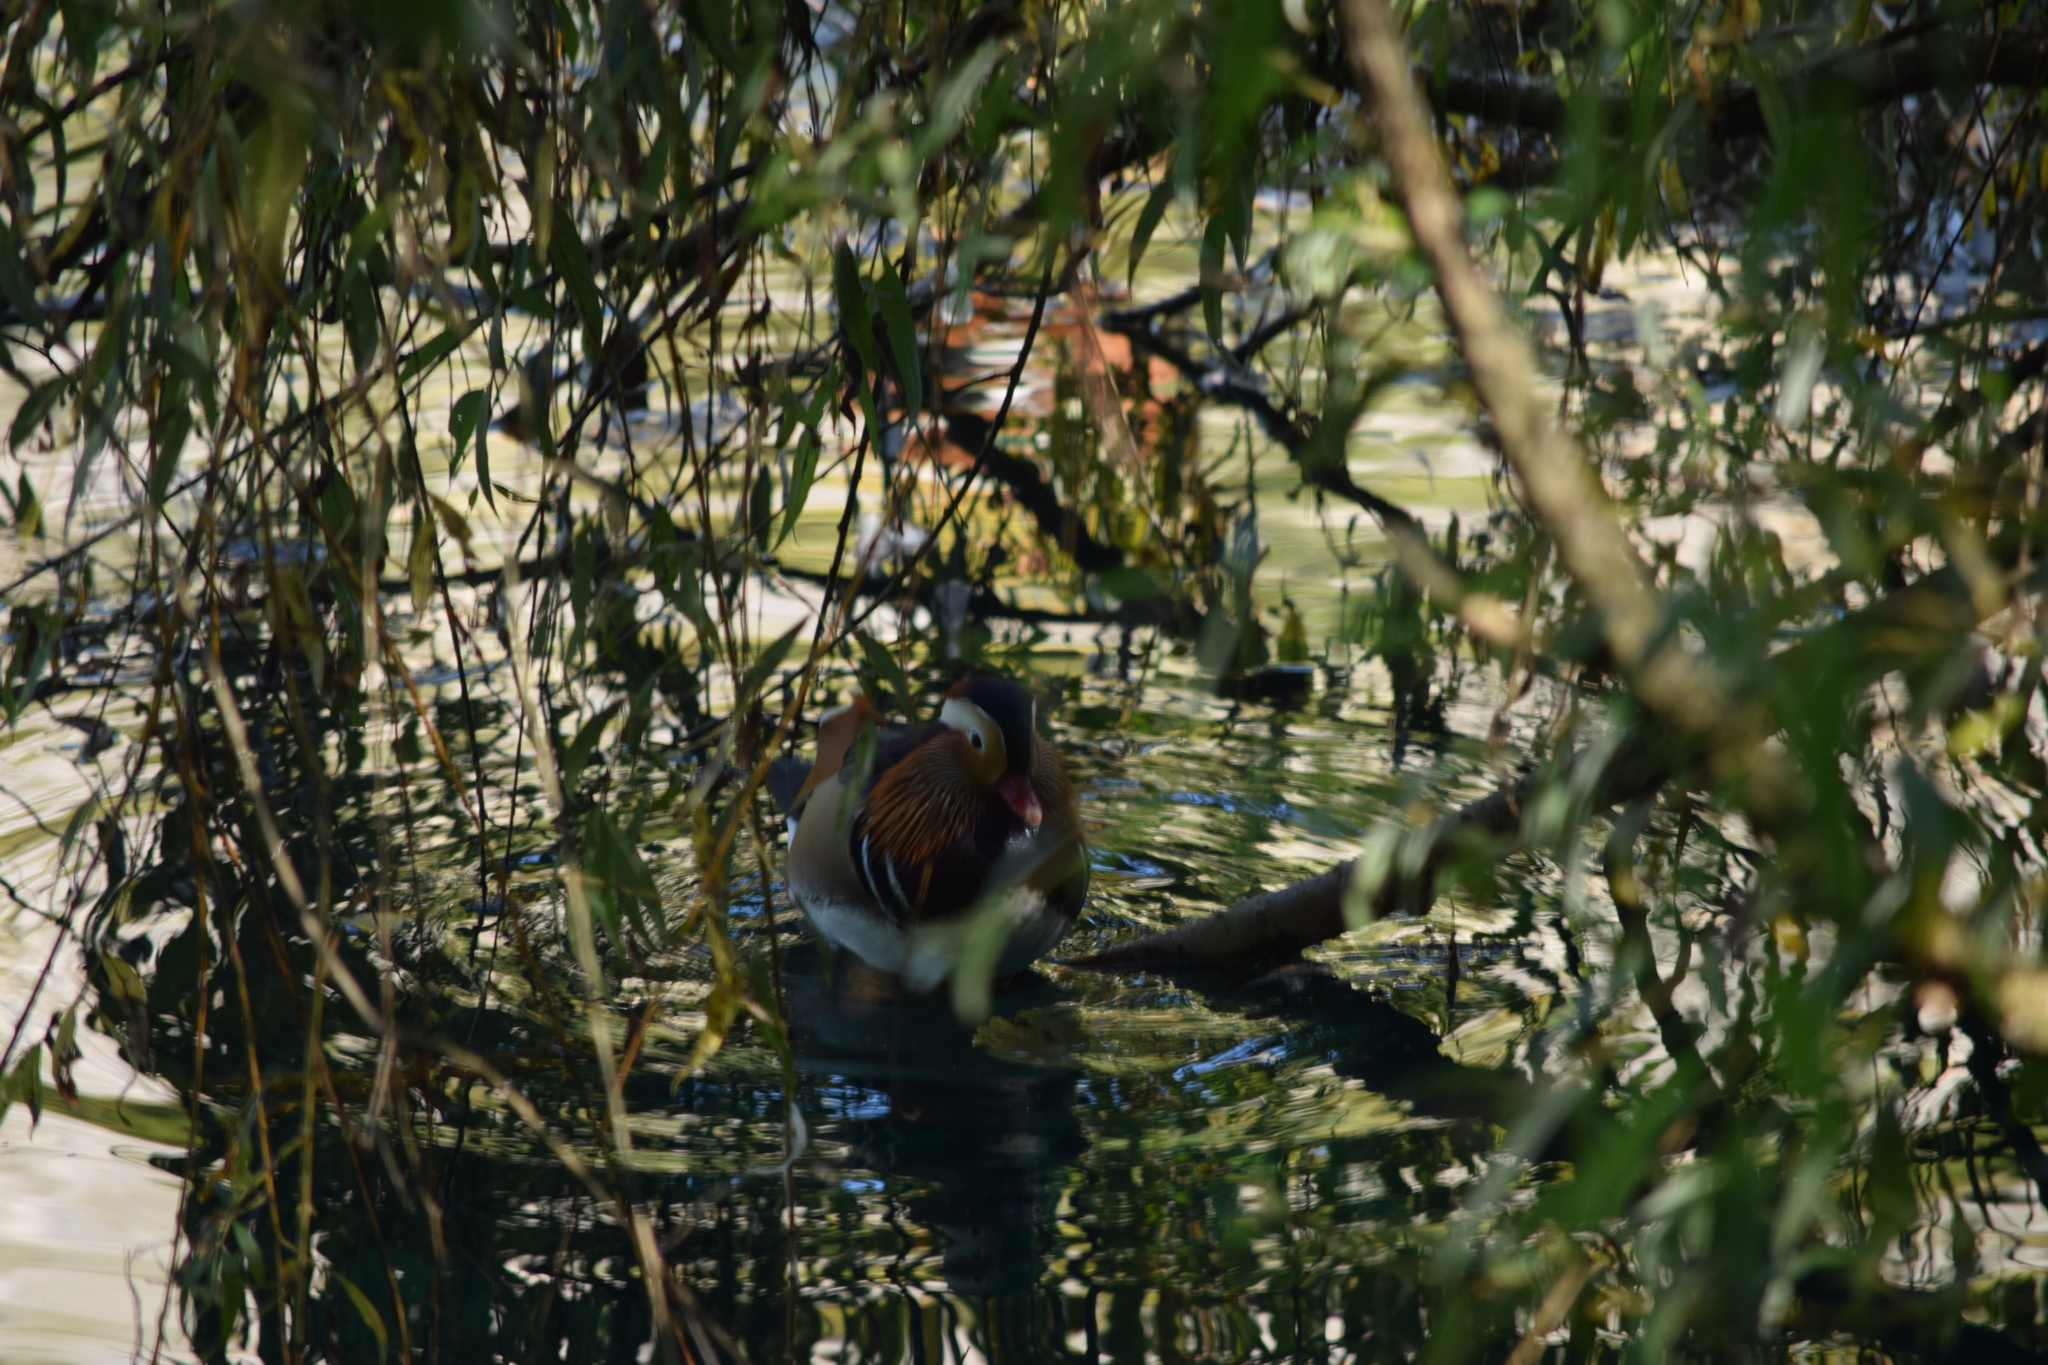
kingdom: Animalia
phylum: Chordata
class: Aves
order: Anseriformes
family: Anatidae
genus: Aix
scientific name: Aix galericulata
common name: Mandarin duck
